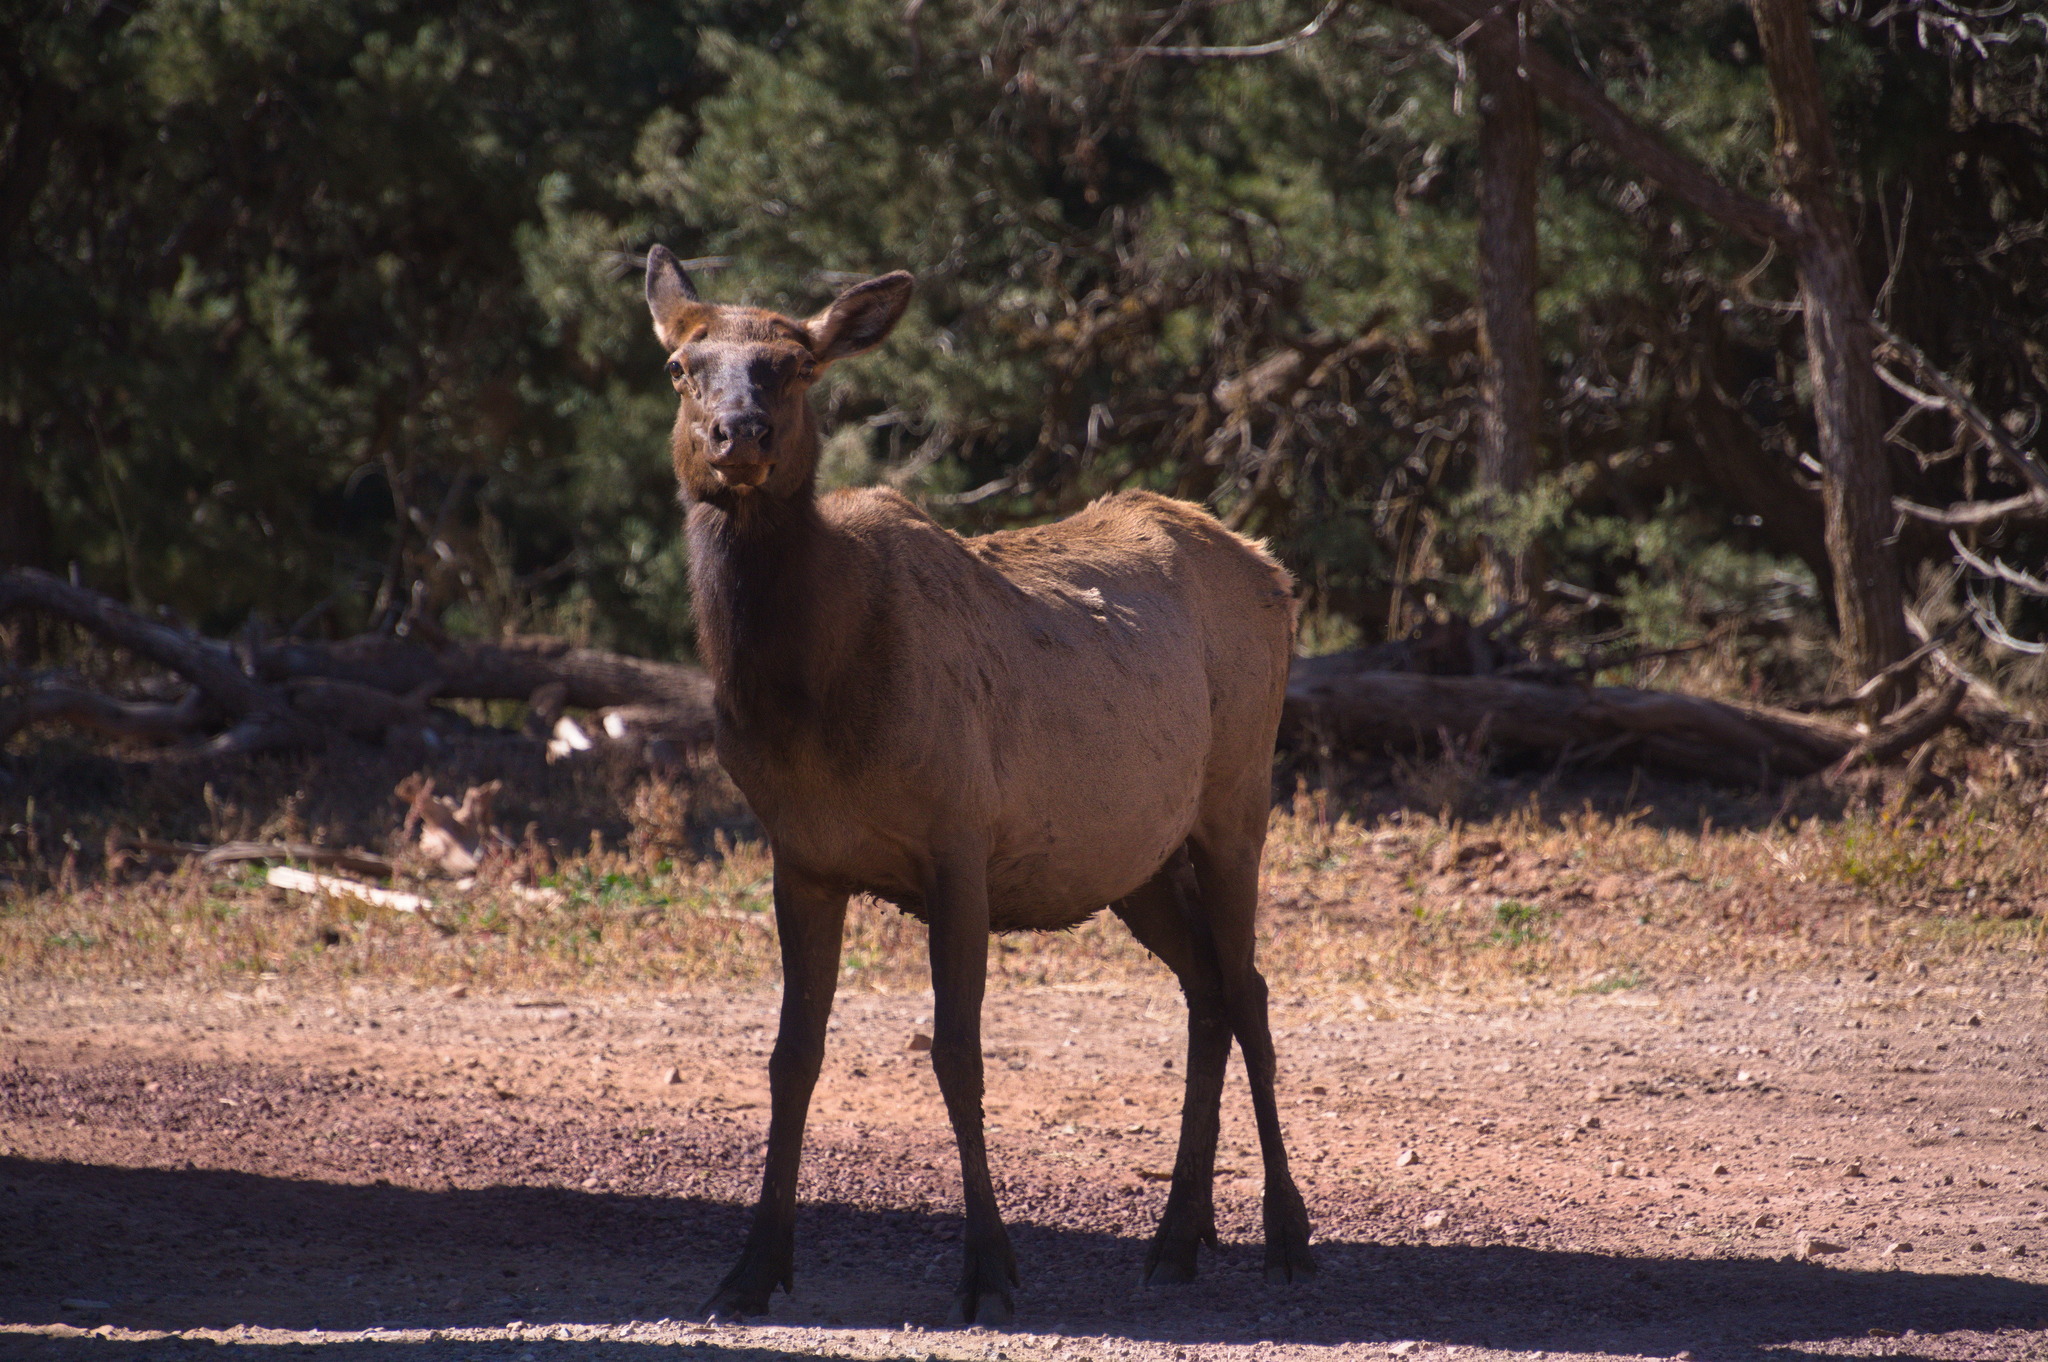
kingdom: Animalia
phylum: Chordata
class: Mammalia
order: Artiodactyla
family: Cervidae
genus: Cervus
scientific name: Cervus elaphus
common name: Red deer
